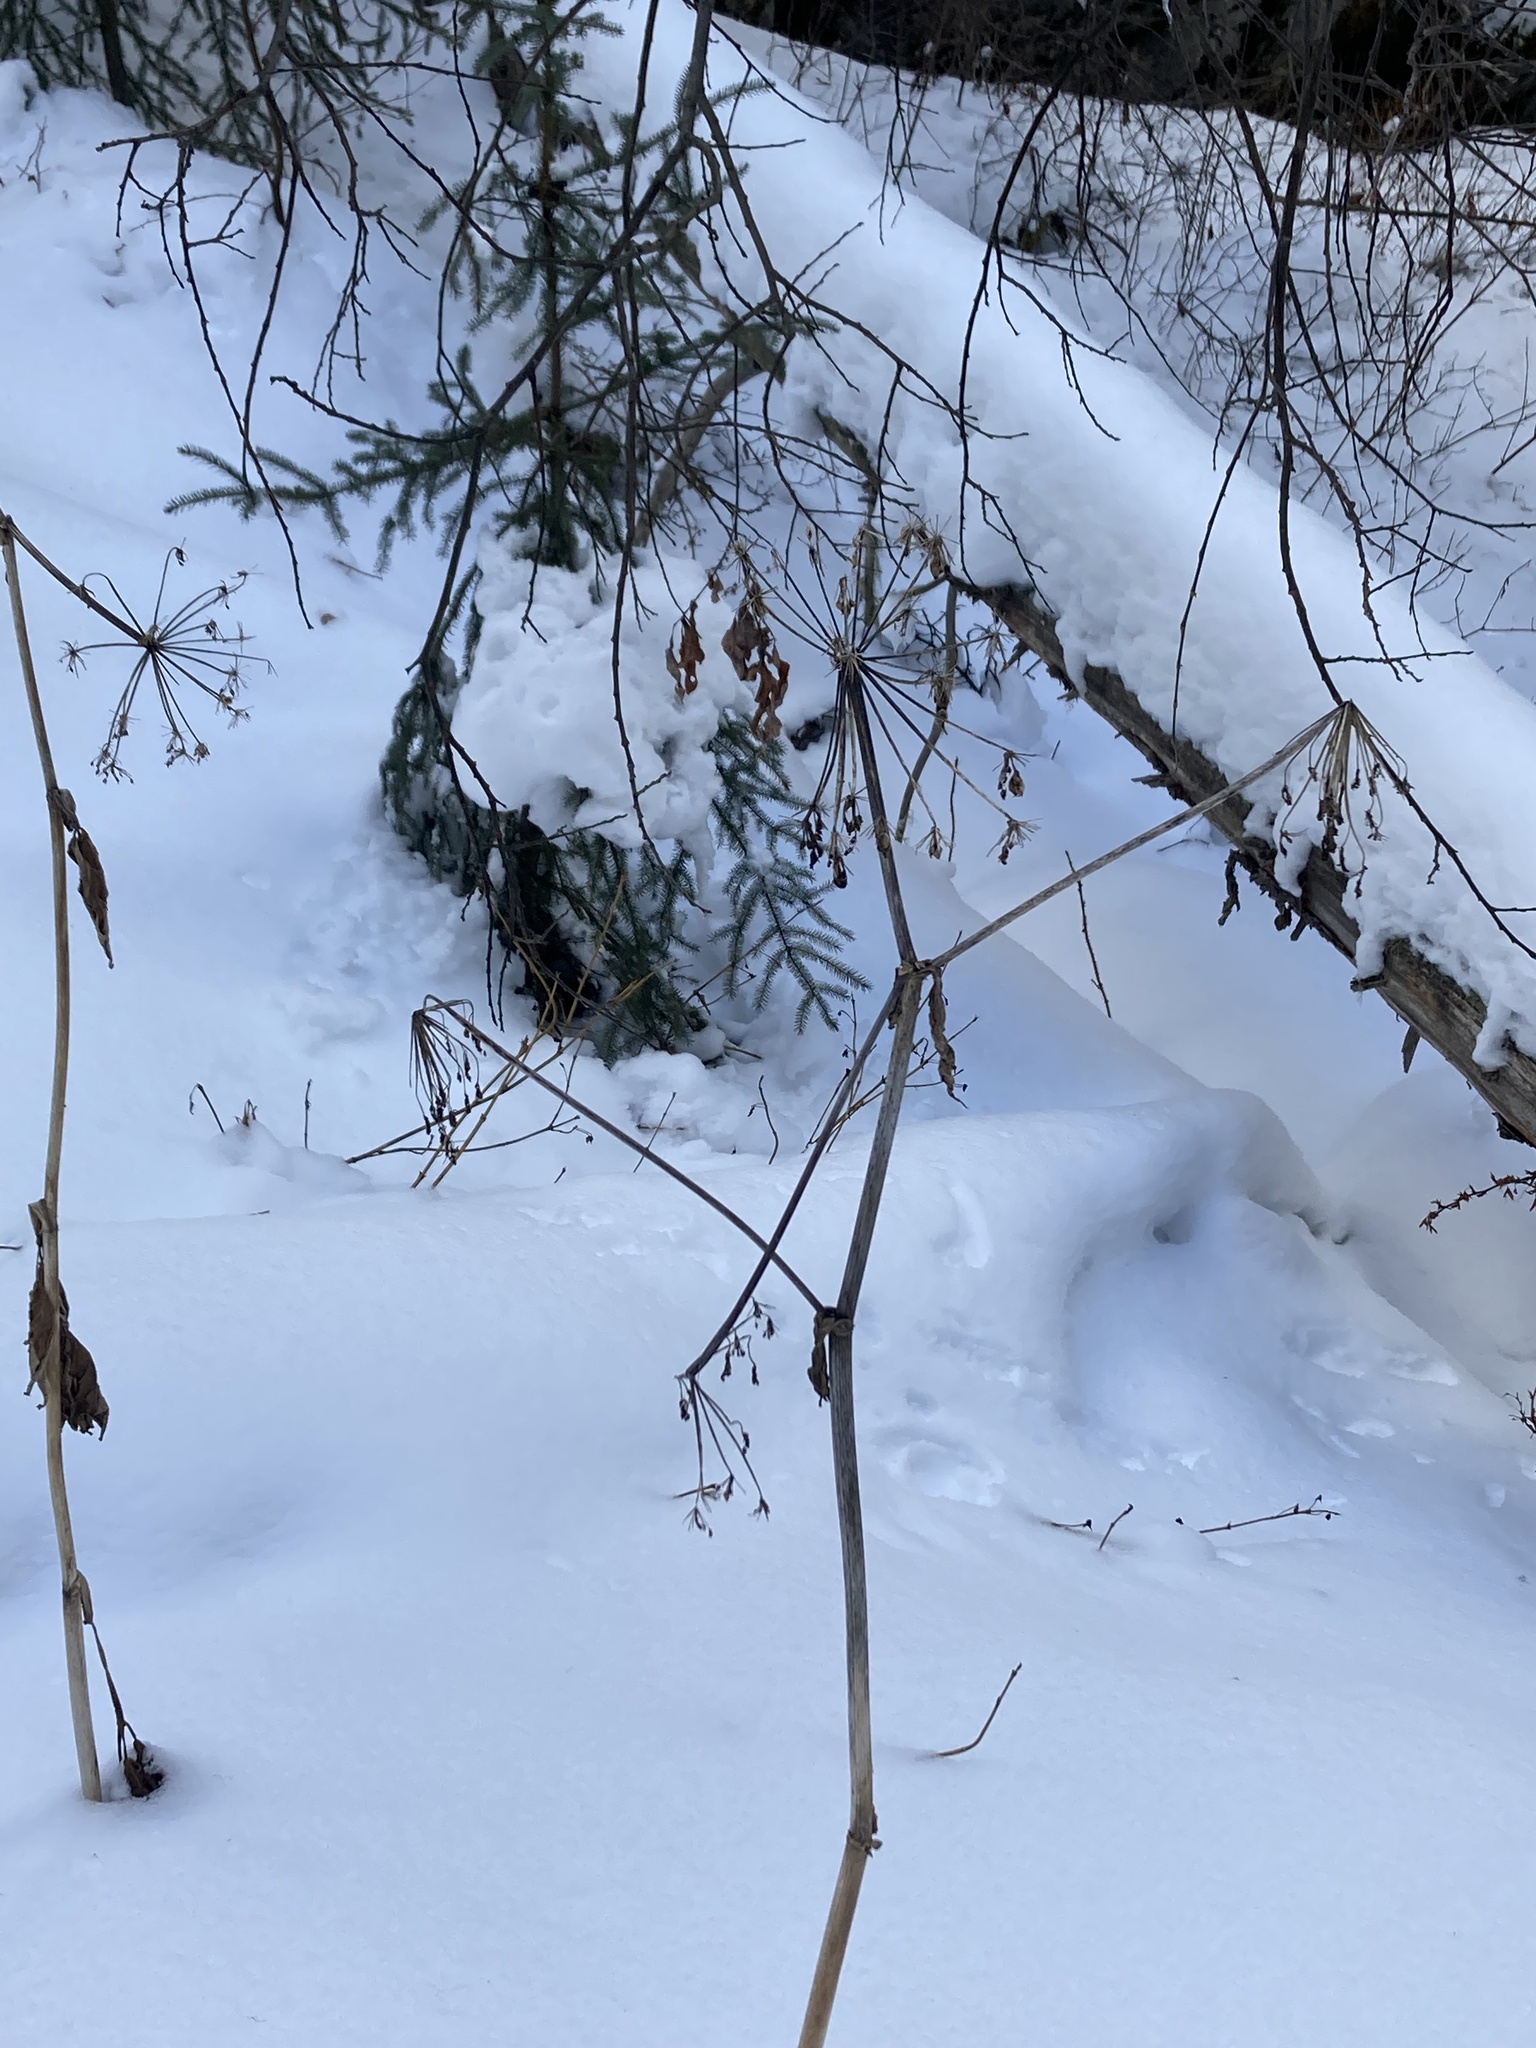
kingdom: Plantae
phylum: Tracheophyta
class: Magnoliopsida
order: Apiales
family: Apiaceae
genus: Heracleum
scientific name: Heracleum maximum
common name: American cow parsnip
